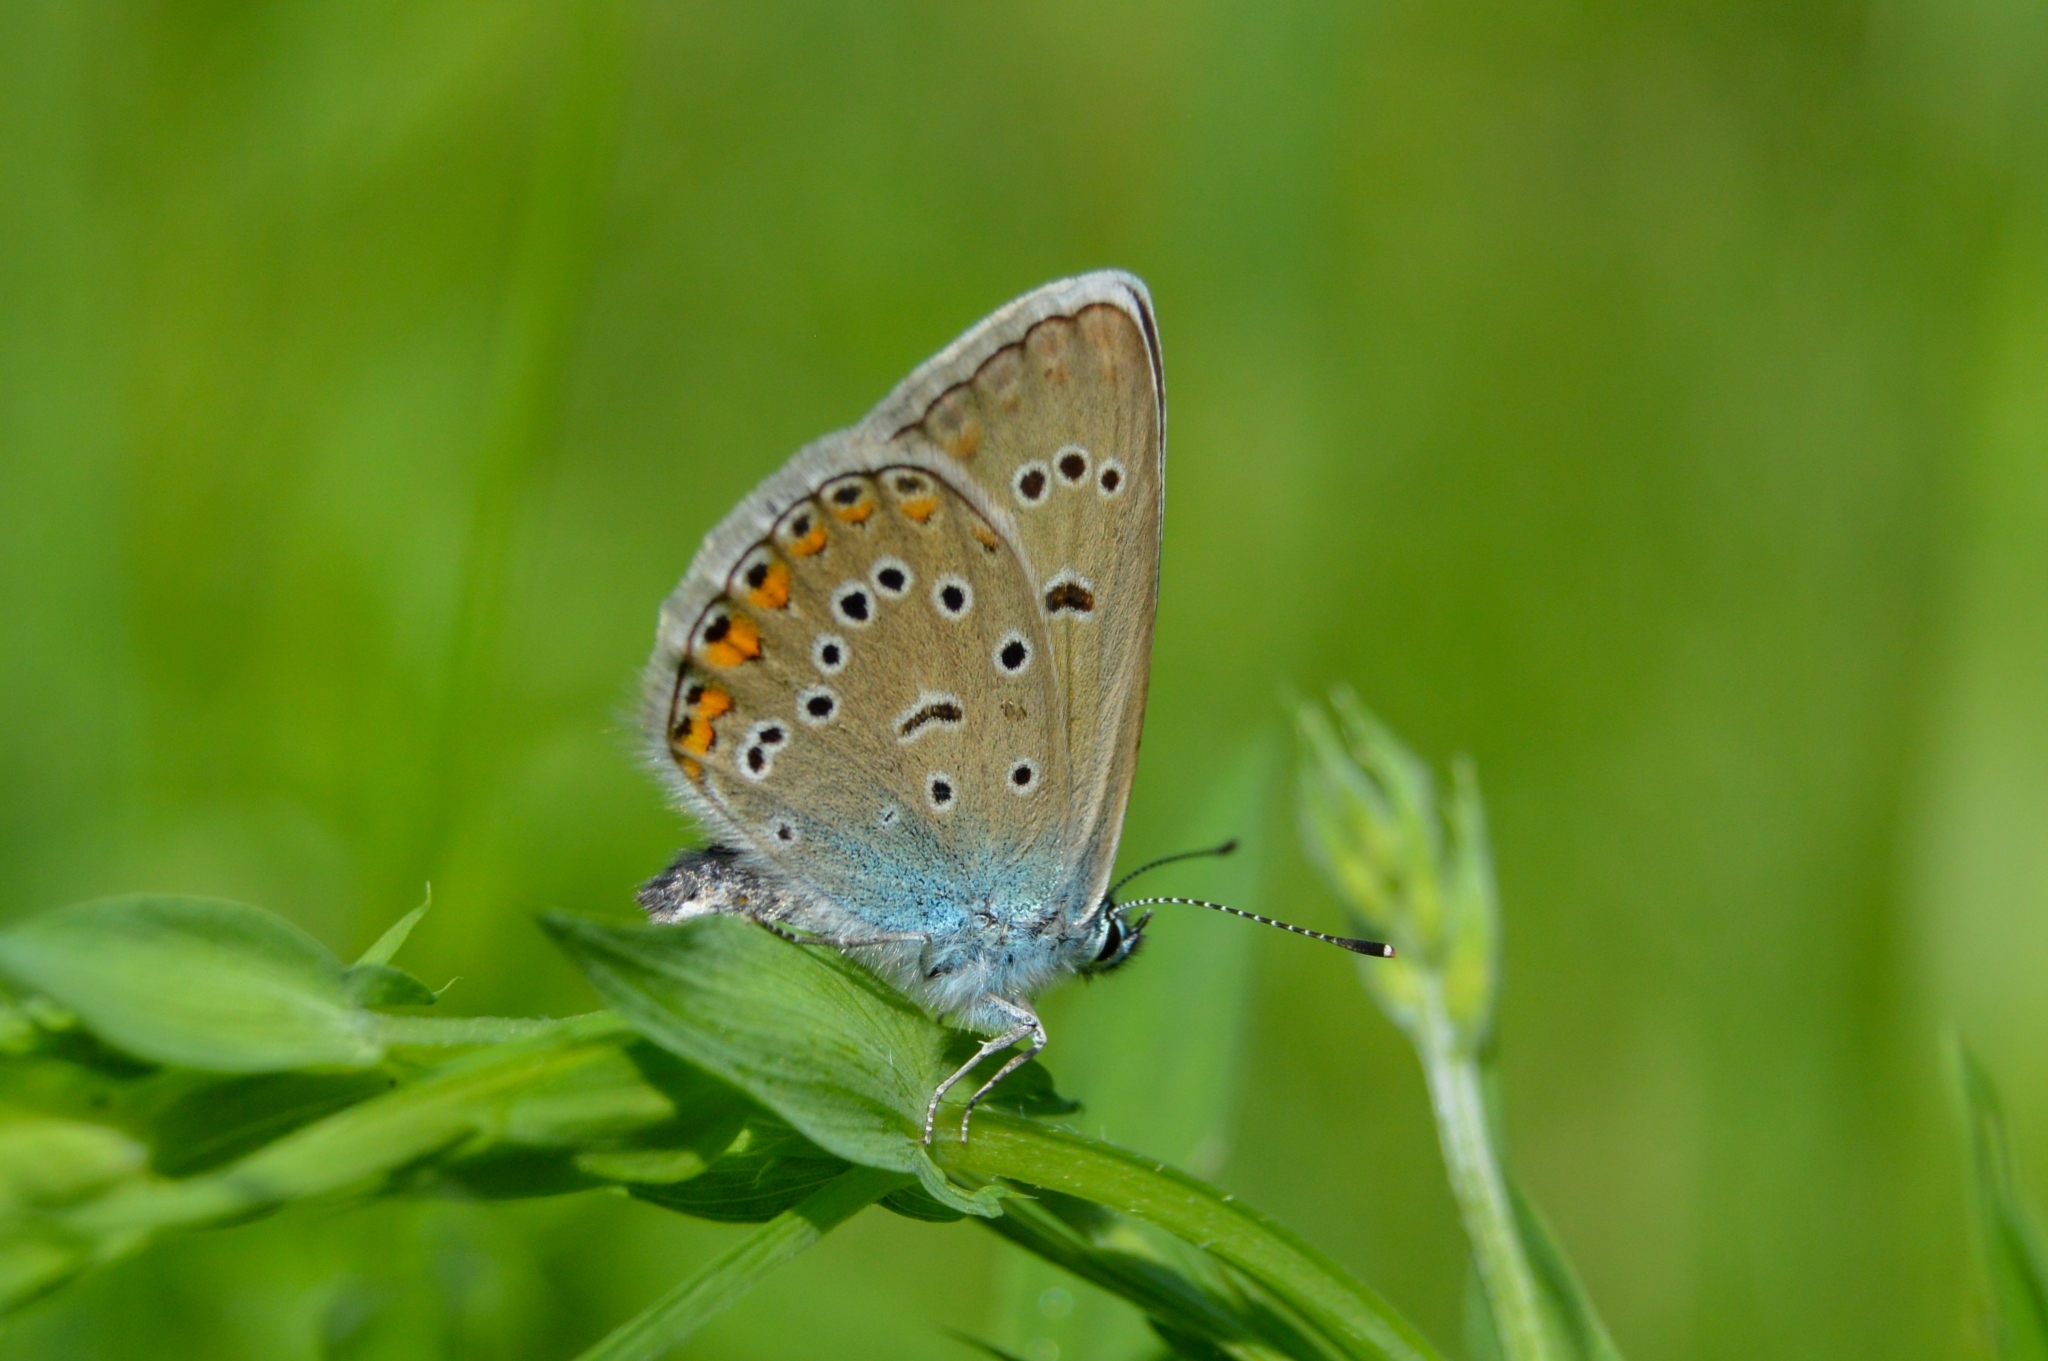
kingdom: Animalia
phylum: Arthropoda
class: Insecta
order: Lepidoptera
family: Lycaenidae
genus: Plebejus
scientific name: Plebejus amanda
